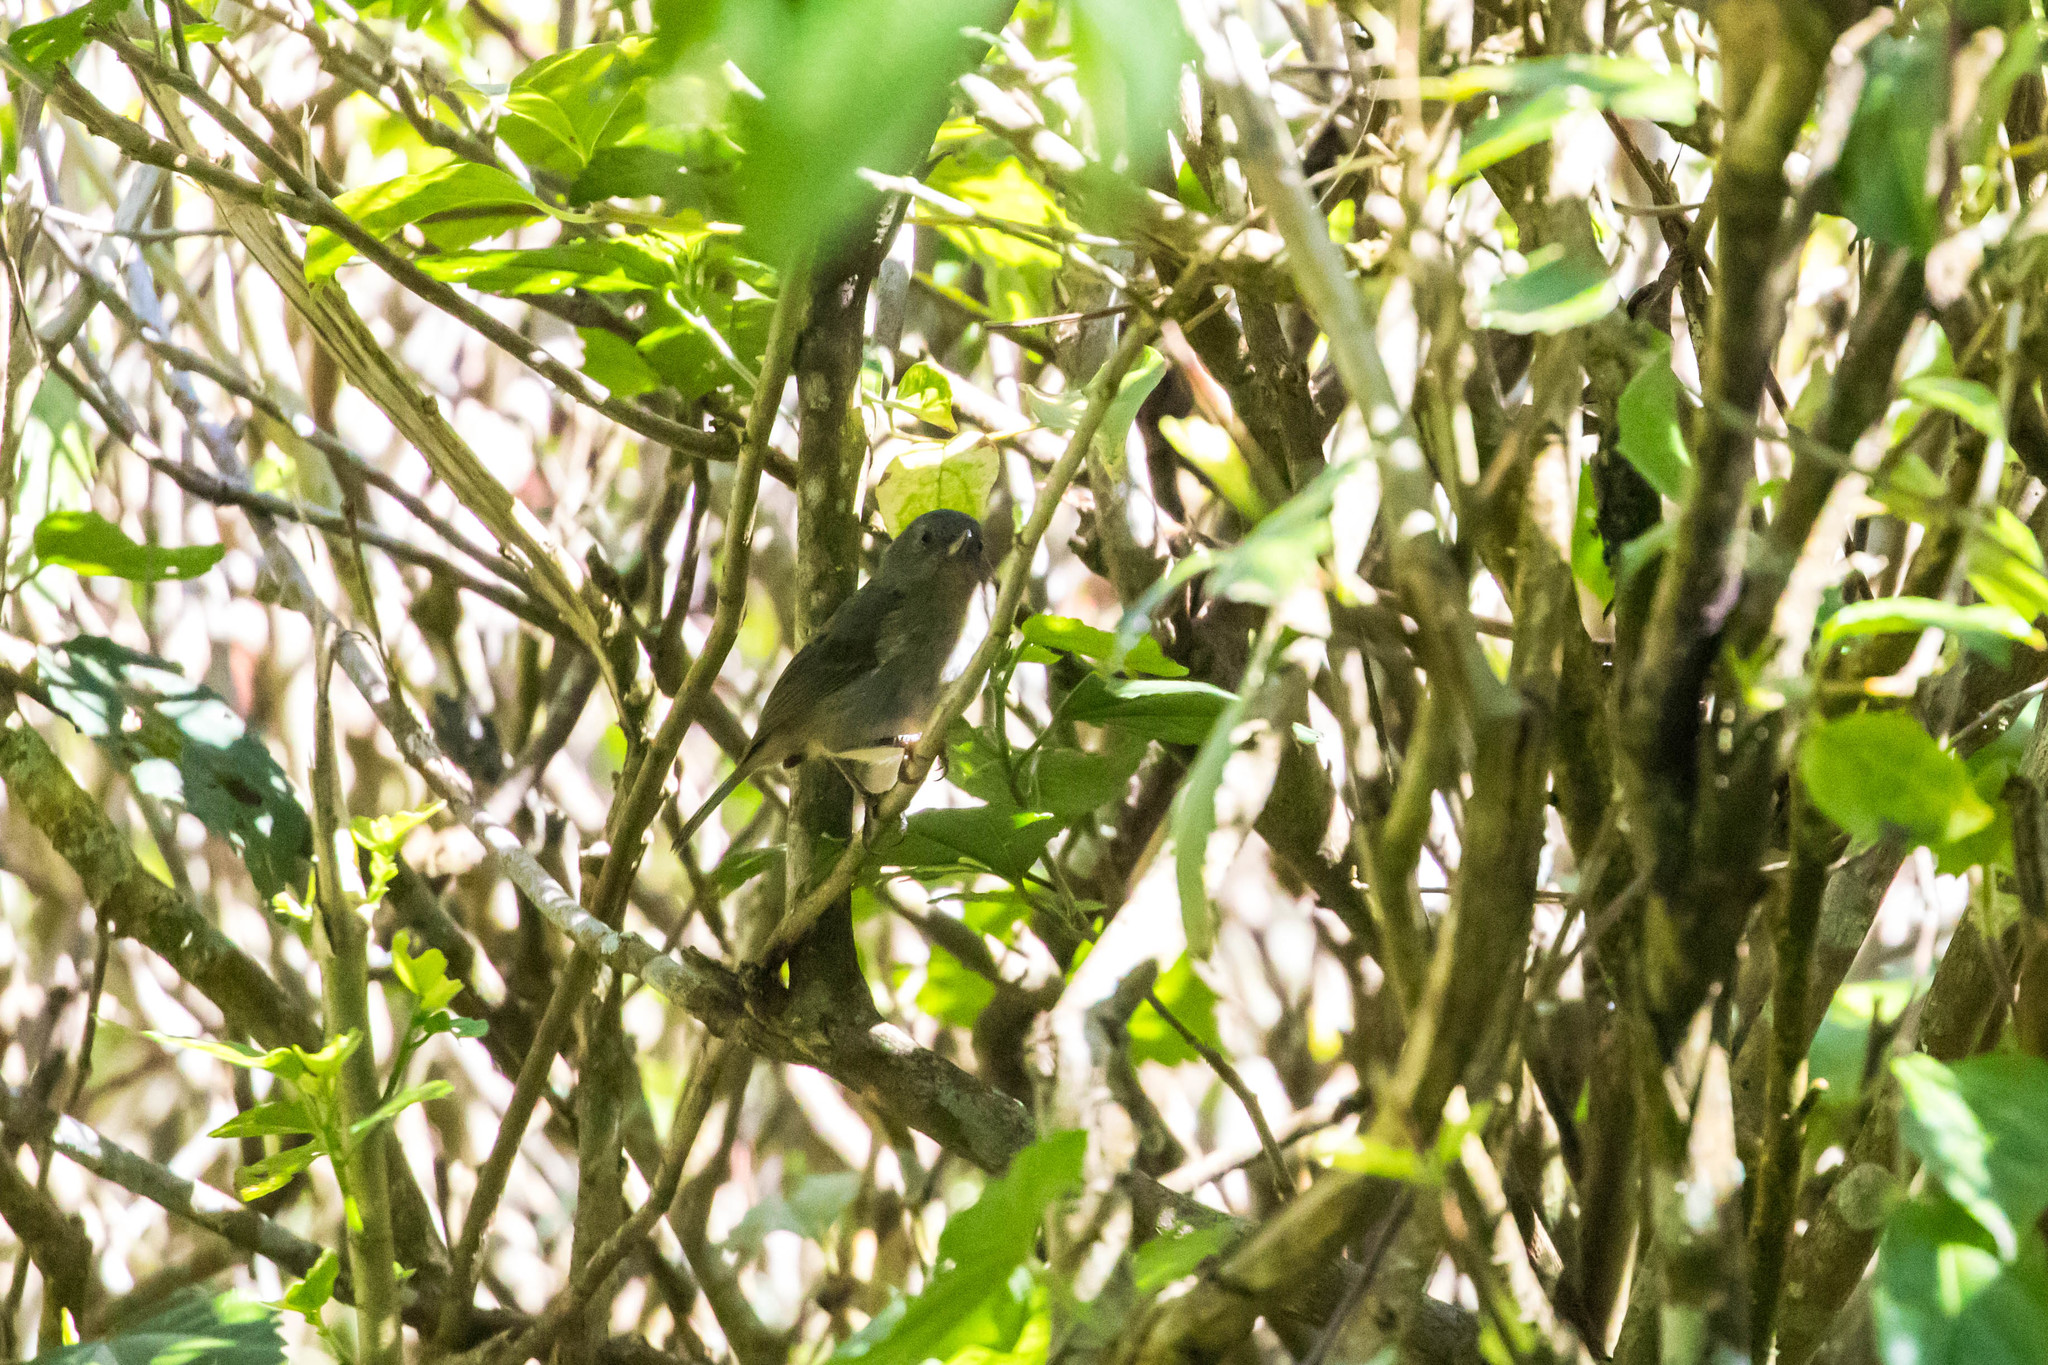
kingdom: Animalia
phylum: Chordata
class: Aves
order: Passeriformes
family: Thraupidae
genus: Diglossa
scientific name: Diglossa plumbea
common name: Slaty flowerpiercer
